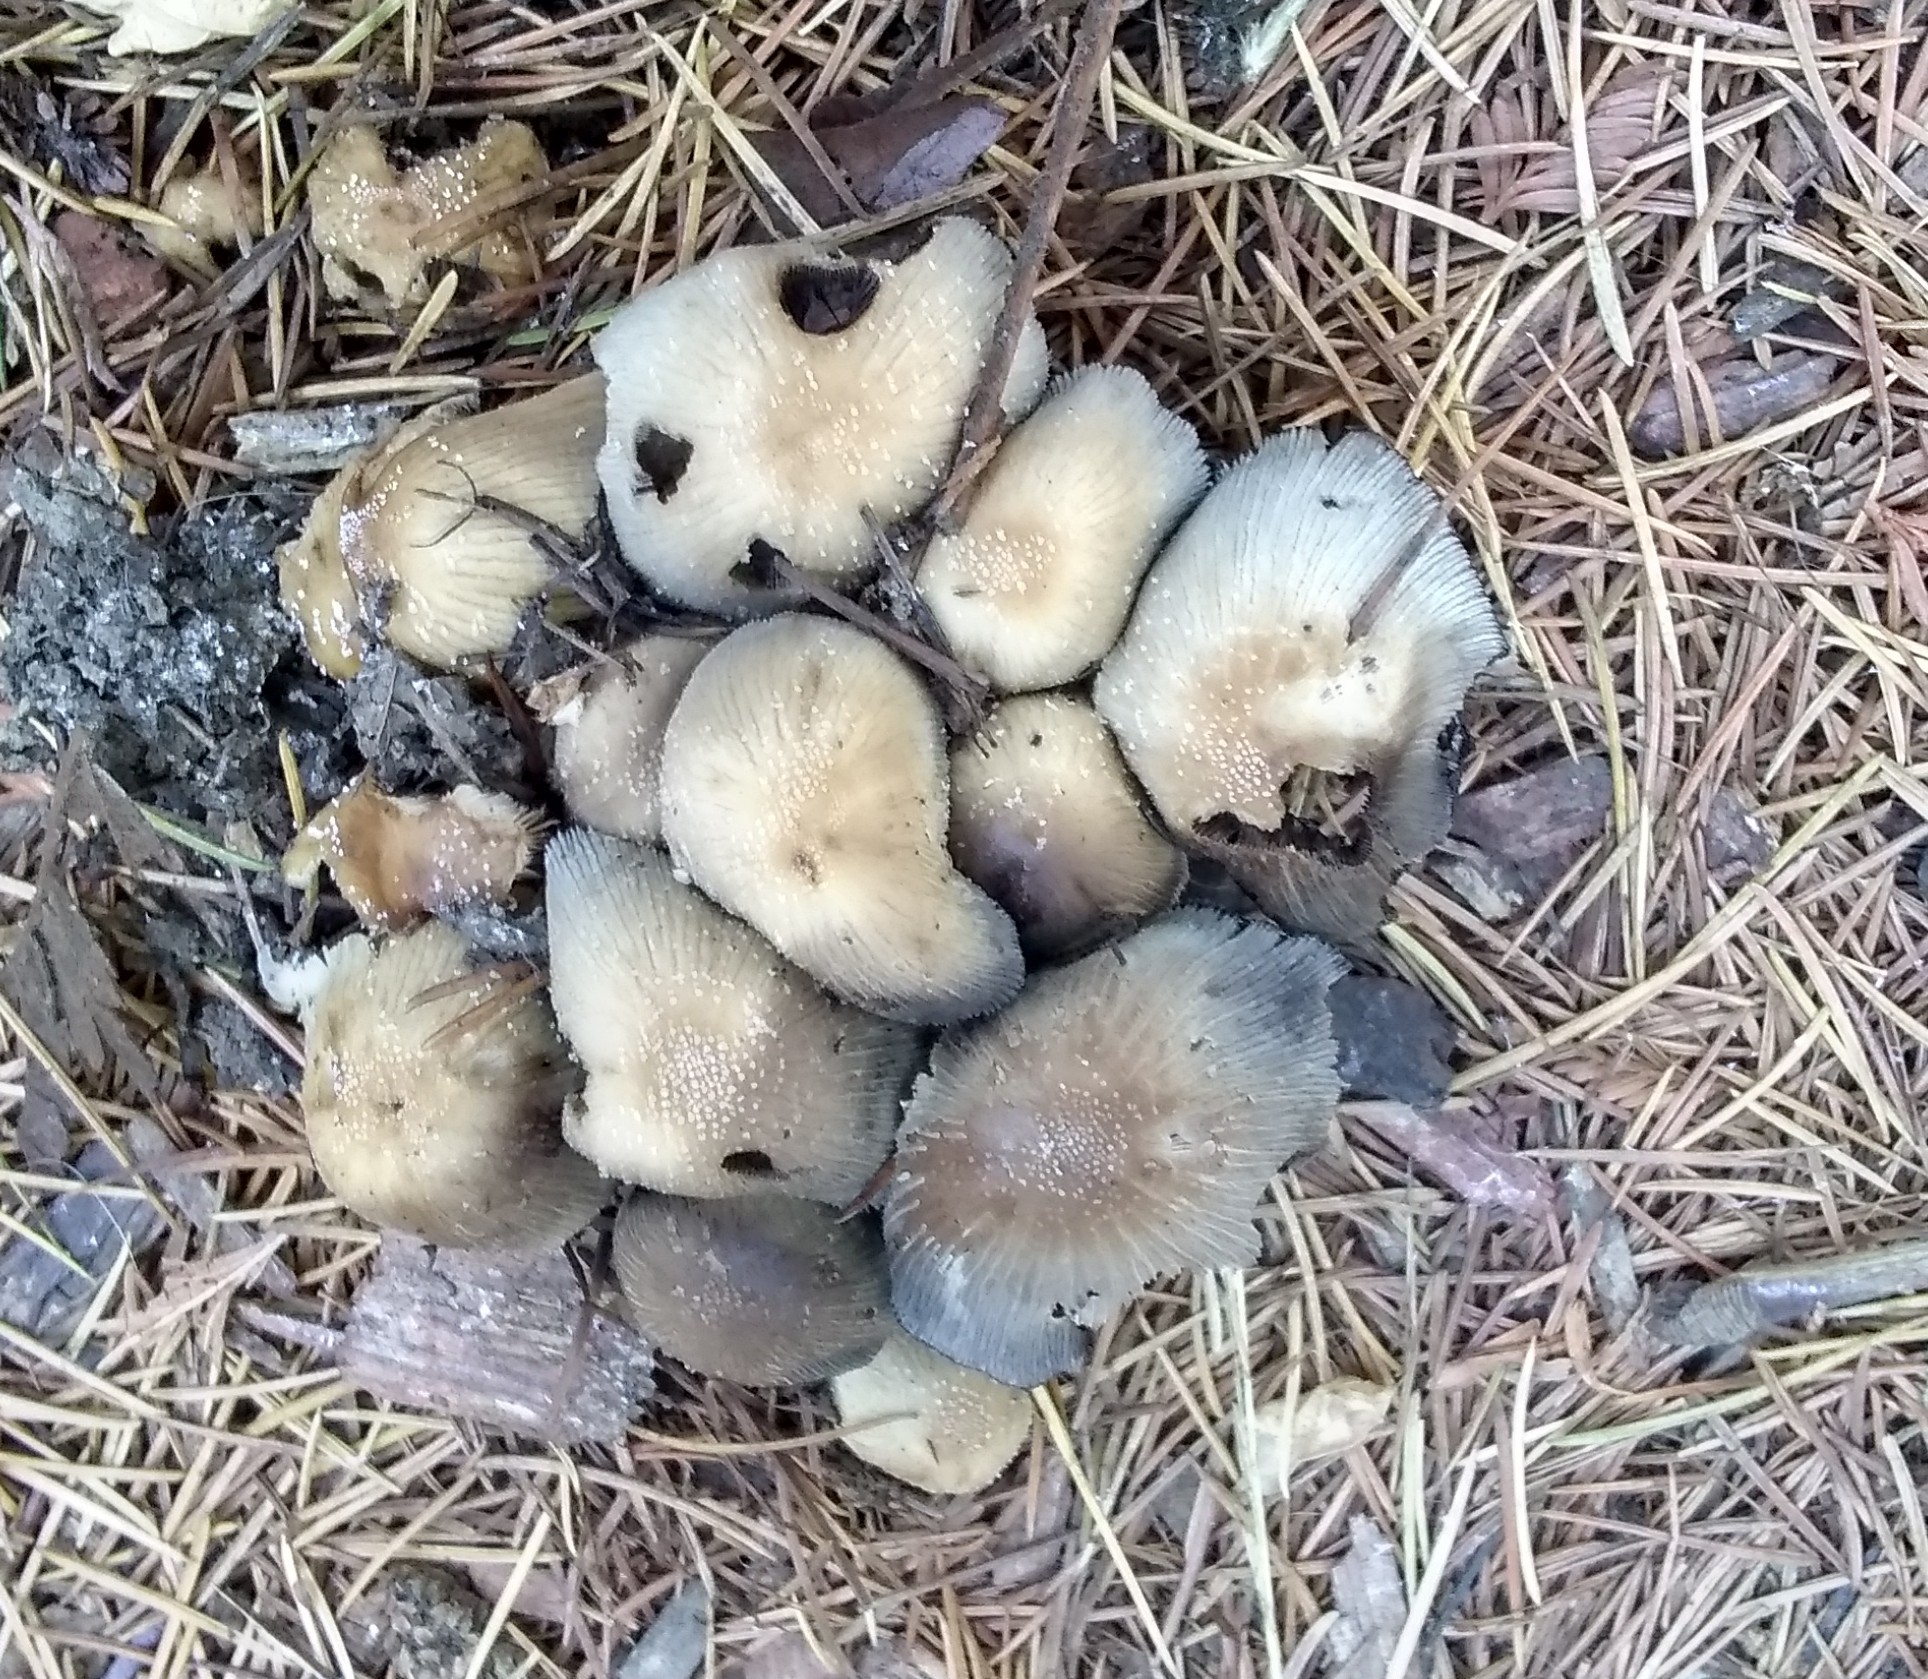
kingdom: Fungi
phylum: Basidiomycota
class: Agaricomycetes
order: Agaricales
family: Psathyrellaceae
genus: Coprinellus
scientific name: Coprinellus micaceus
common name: Glistening ink-cap
